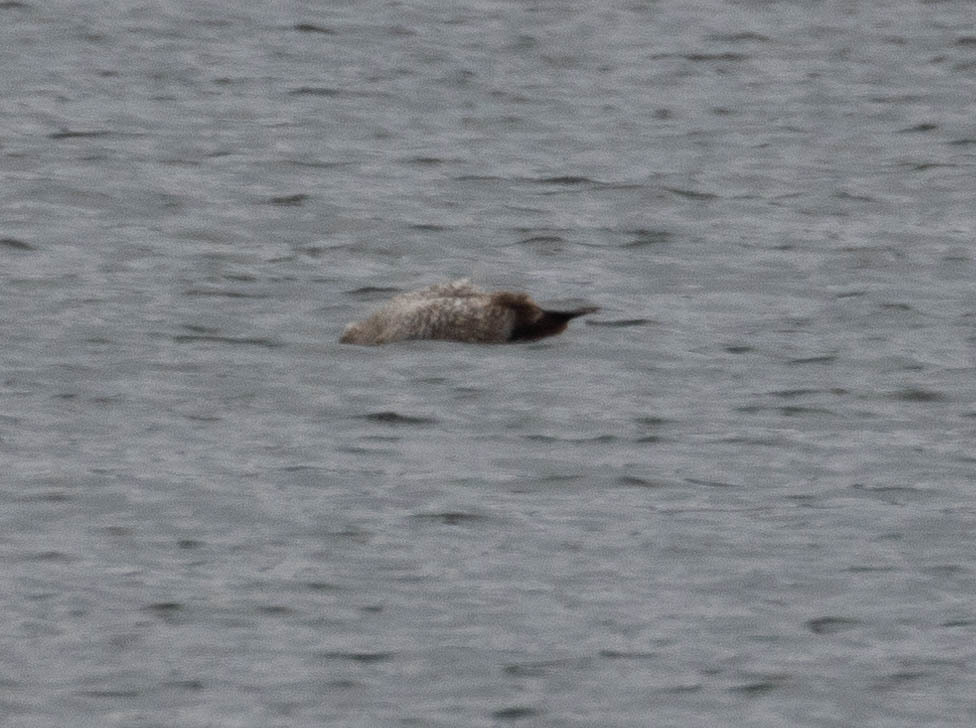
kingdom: Animalia
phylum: Chordata
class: Aves
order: Charadriiformes
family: Laridae
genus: Larus
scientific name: Larus argentatus
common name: Herring gull
